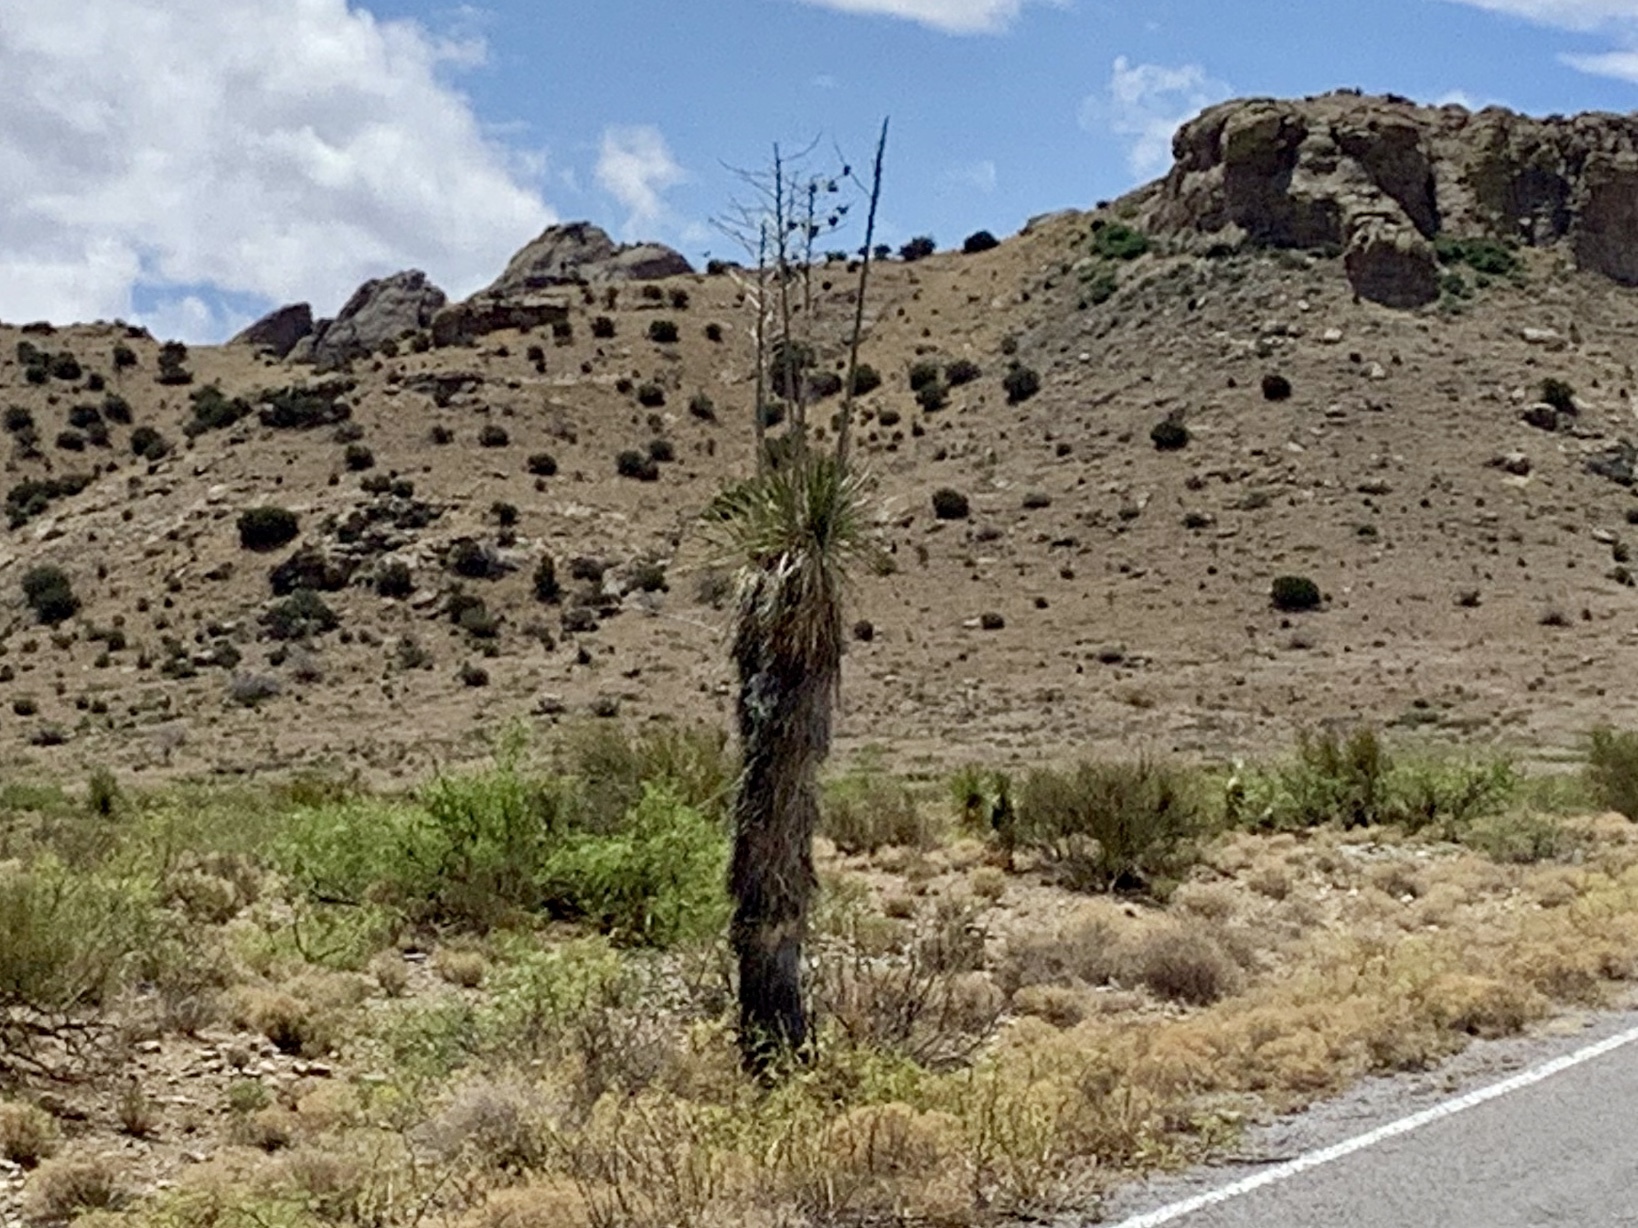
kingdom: Plantae
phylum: Tracheophyta
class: Liliopsida
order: Asparagales
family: Asparagaceae
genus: Yucca
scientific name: Yucca elata
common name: Palmella
